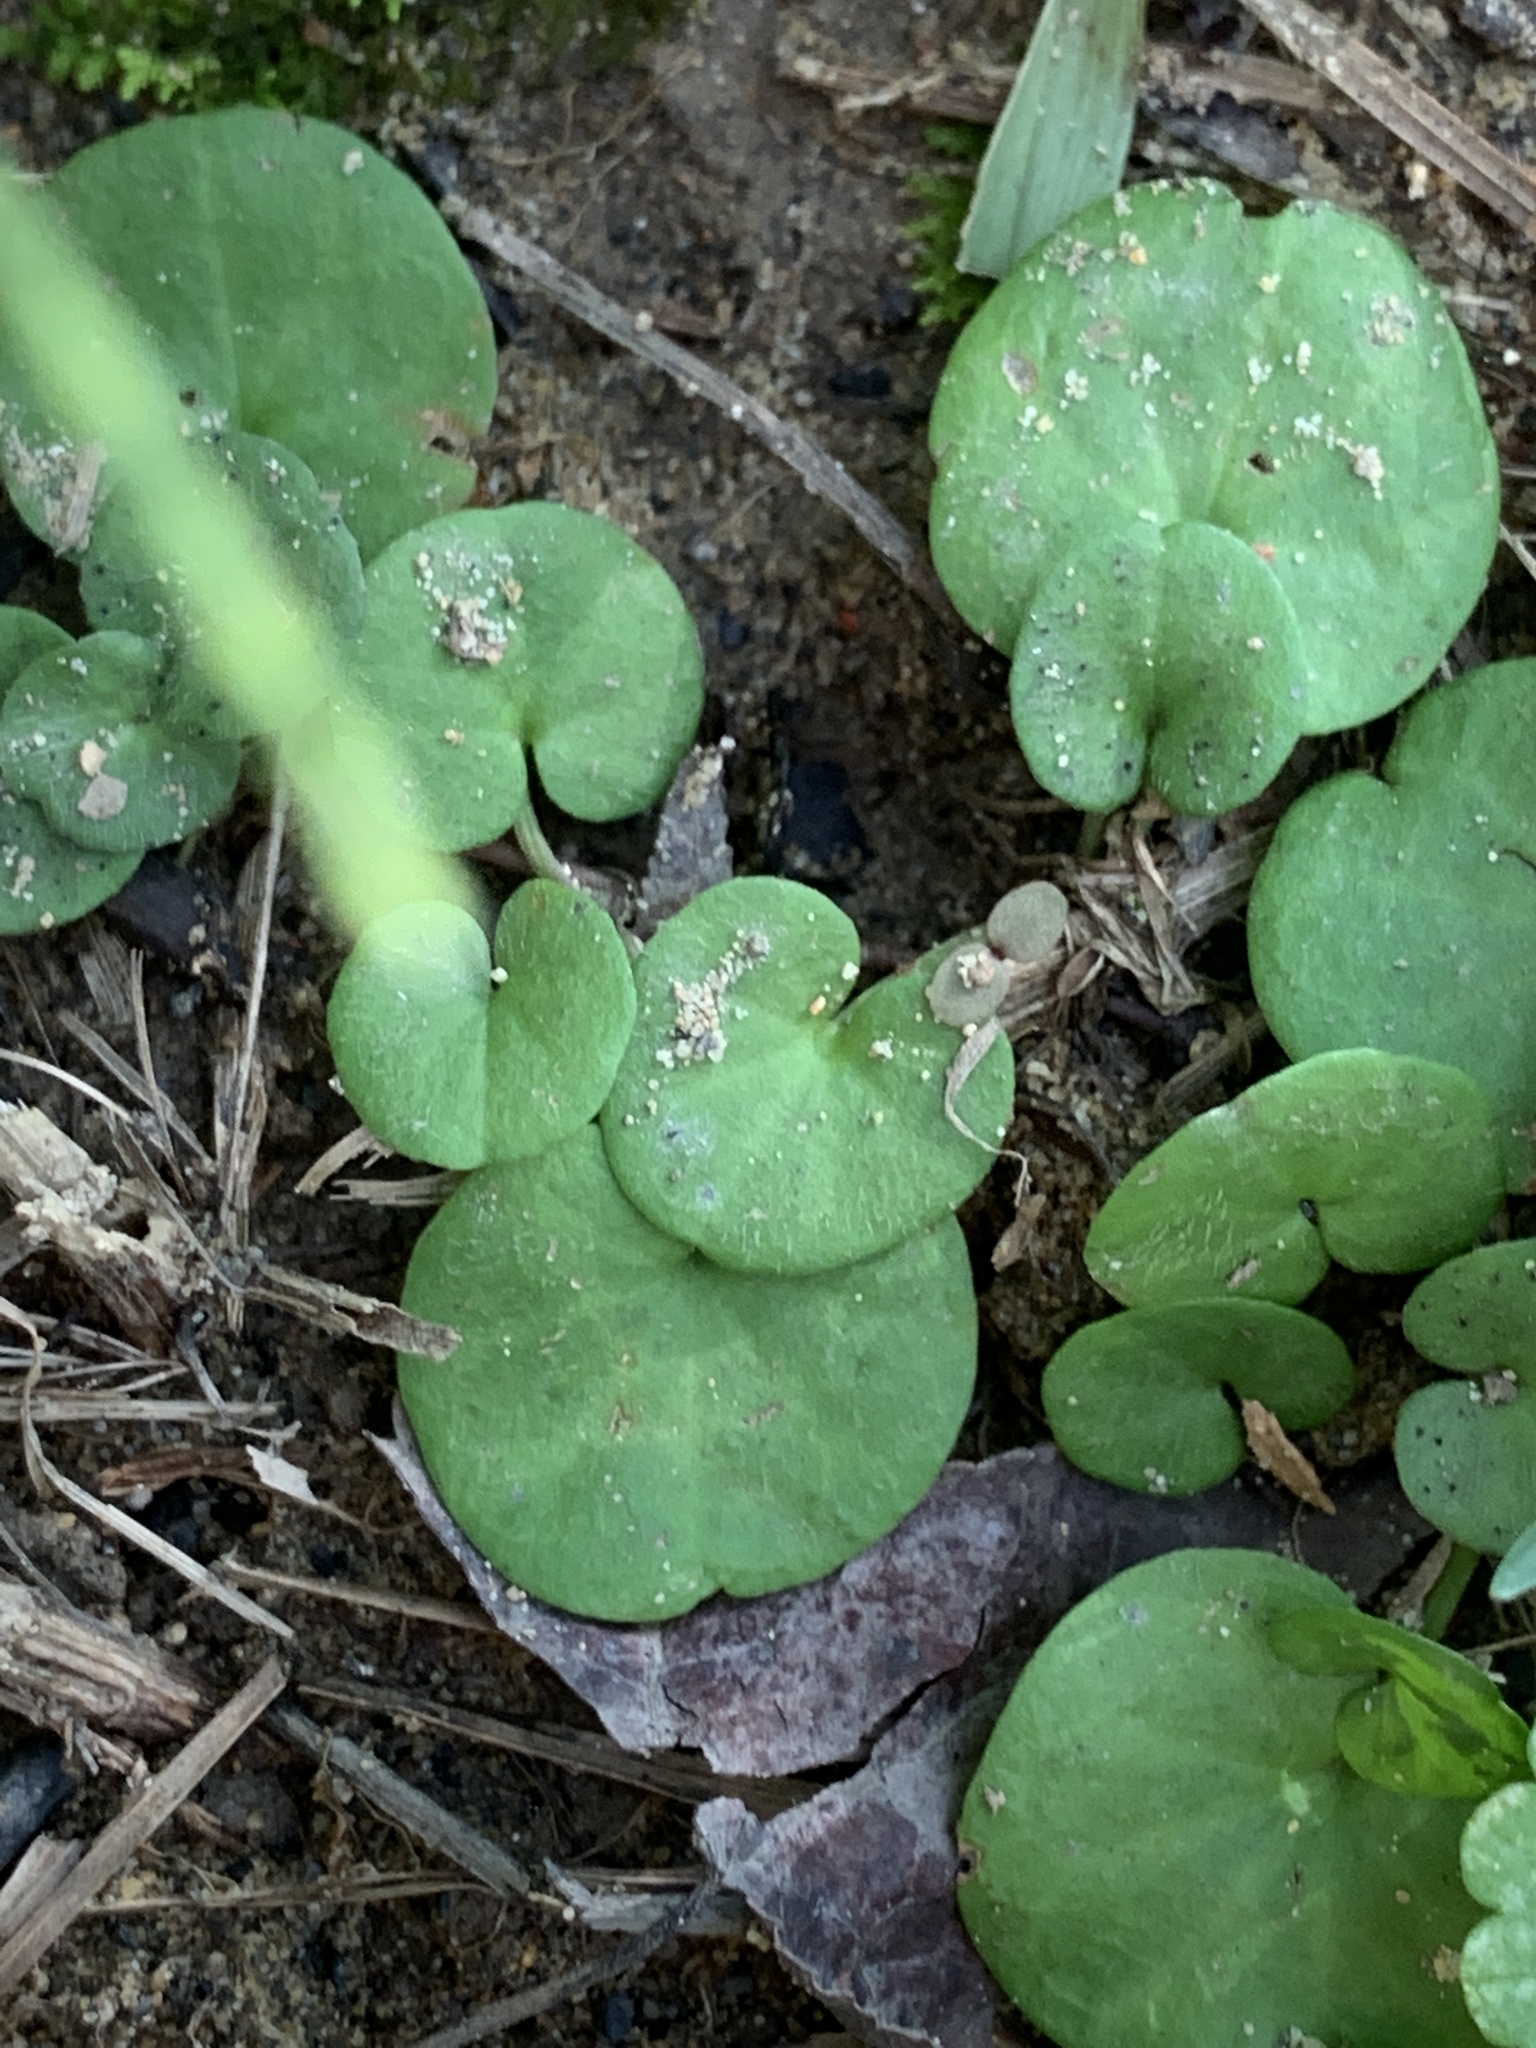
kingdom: Plantae
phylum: Tracheophyta
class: Magnoliopsida
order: Solanales
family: Convolvulaceae
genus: Dichondra
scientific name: Dichondra carolinensis
